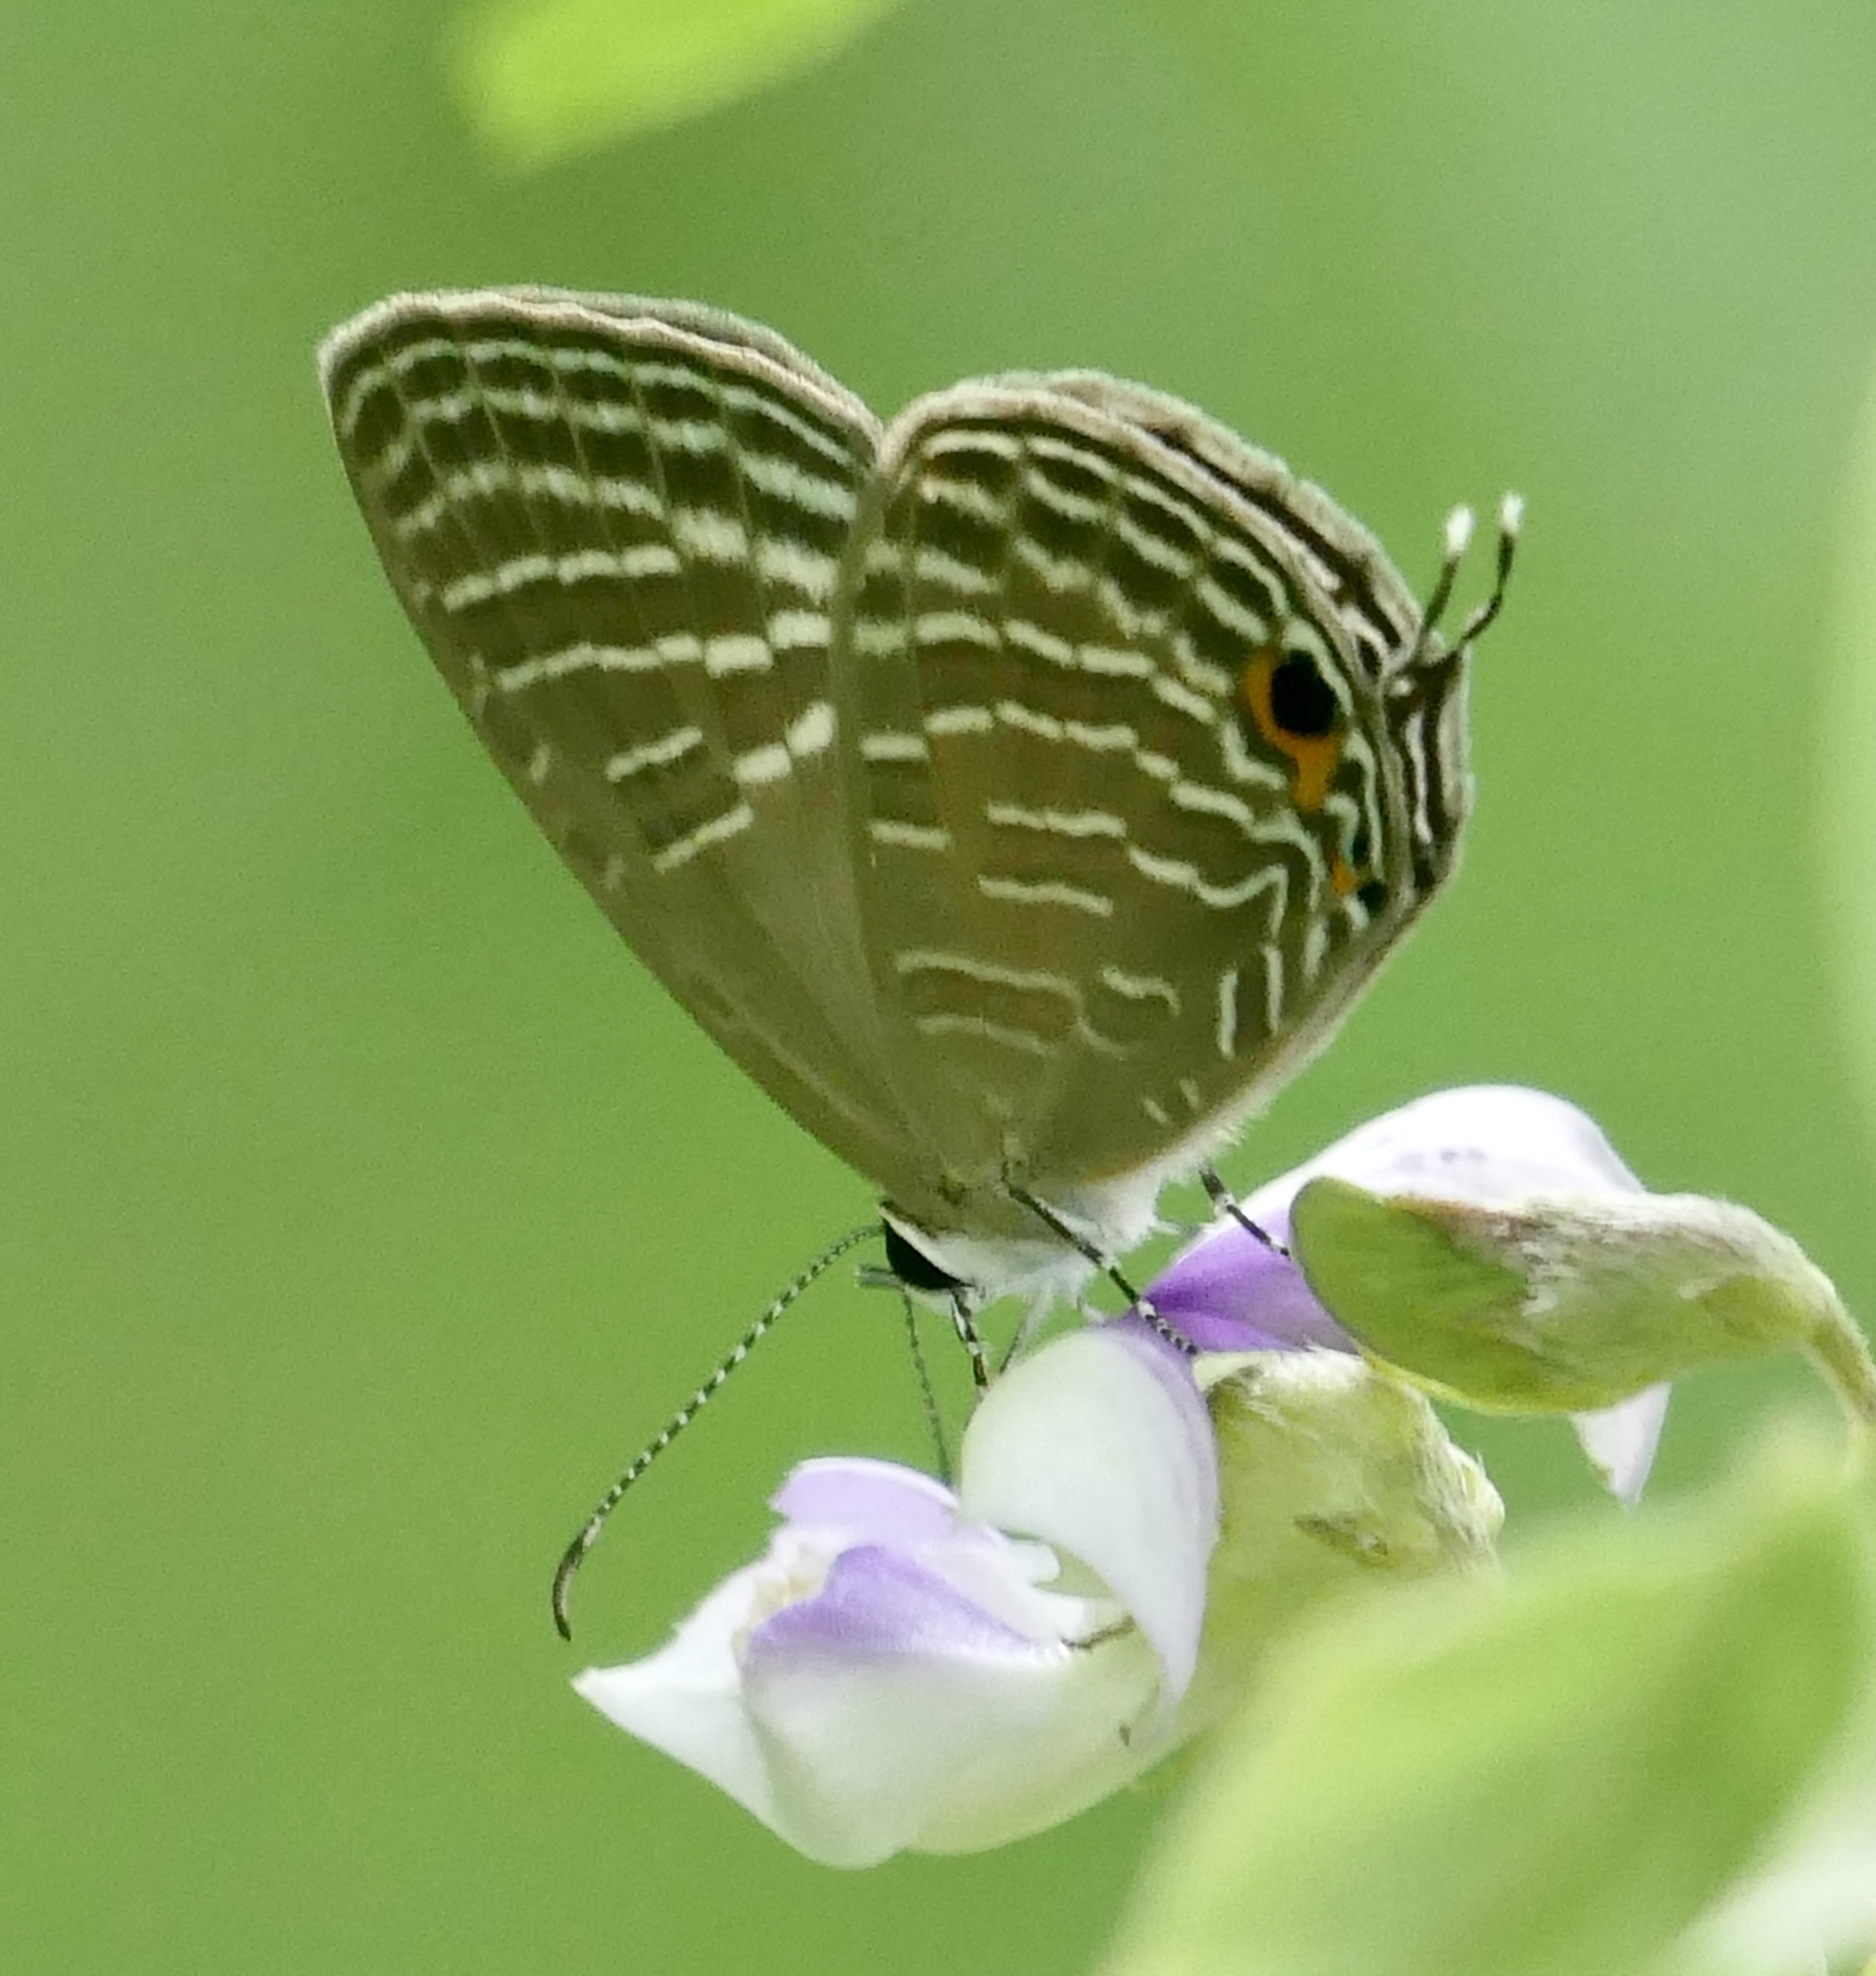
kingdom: Animalia
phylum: Arthropoda
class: Insecta
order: Lepidoptera
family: Lycaenidae
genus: Jamides
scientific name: Jamides celeno
